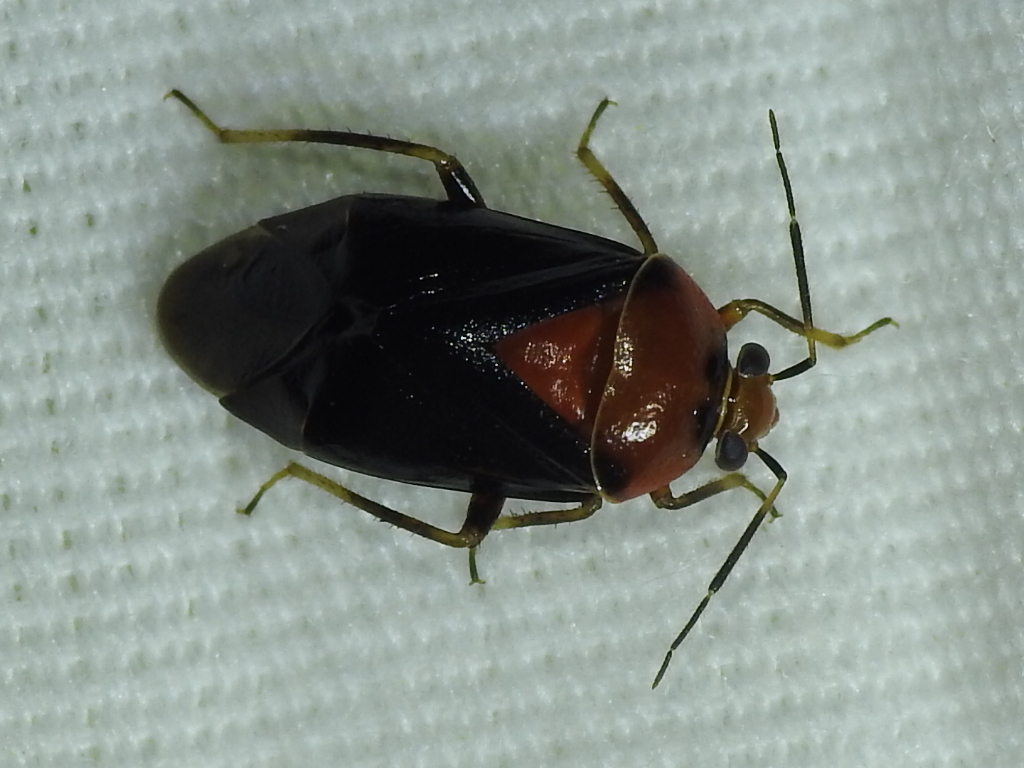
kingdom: Animalia
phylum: Arthropoda
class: Insecta
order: Hemiptera
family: Miridae
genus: Neocapsus
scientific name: Neocapsus cuneatus
